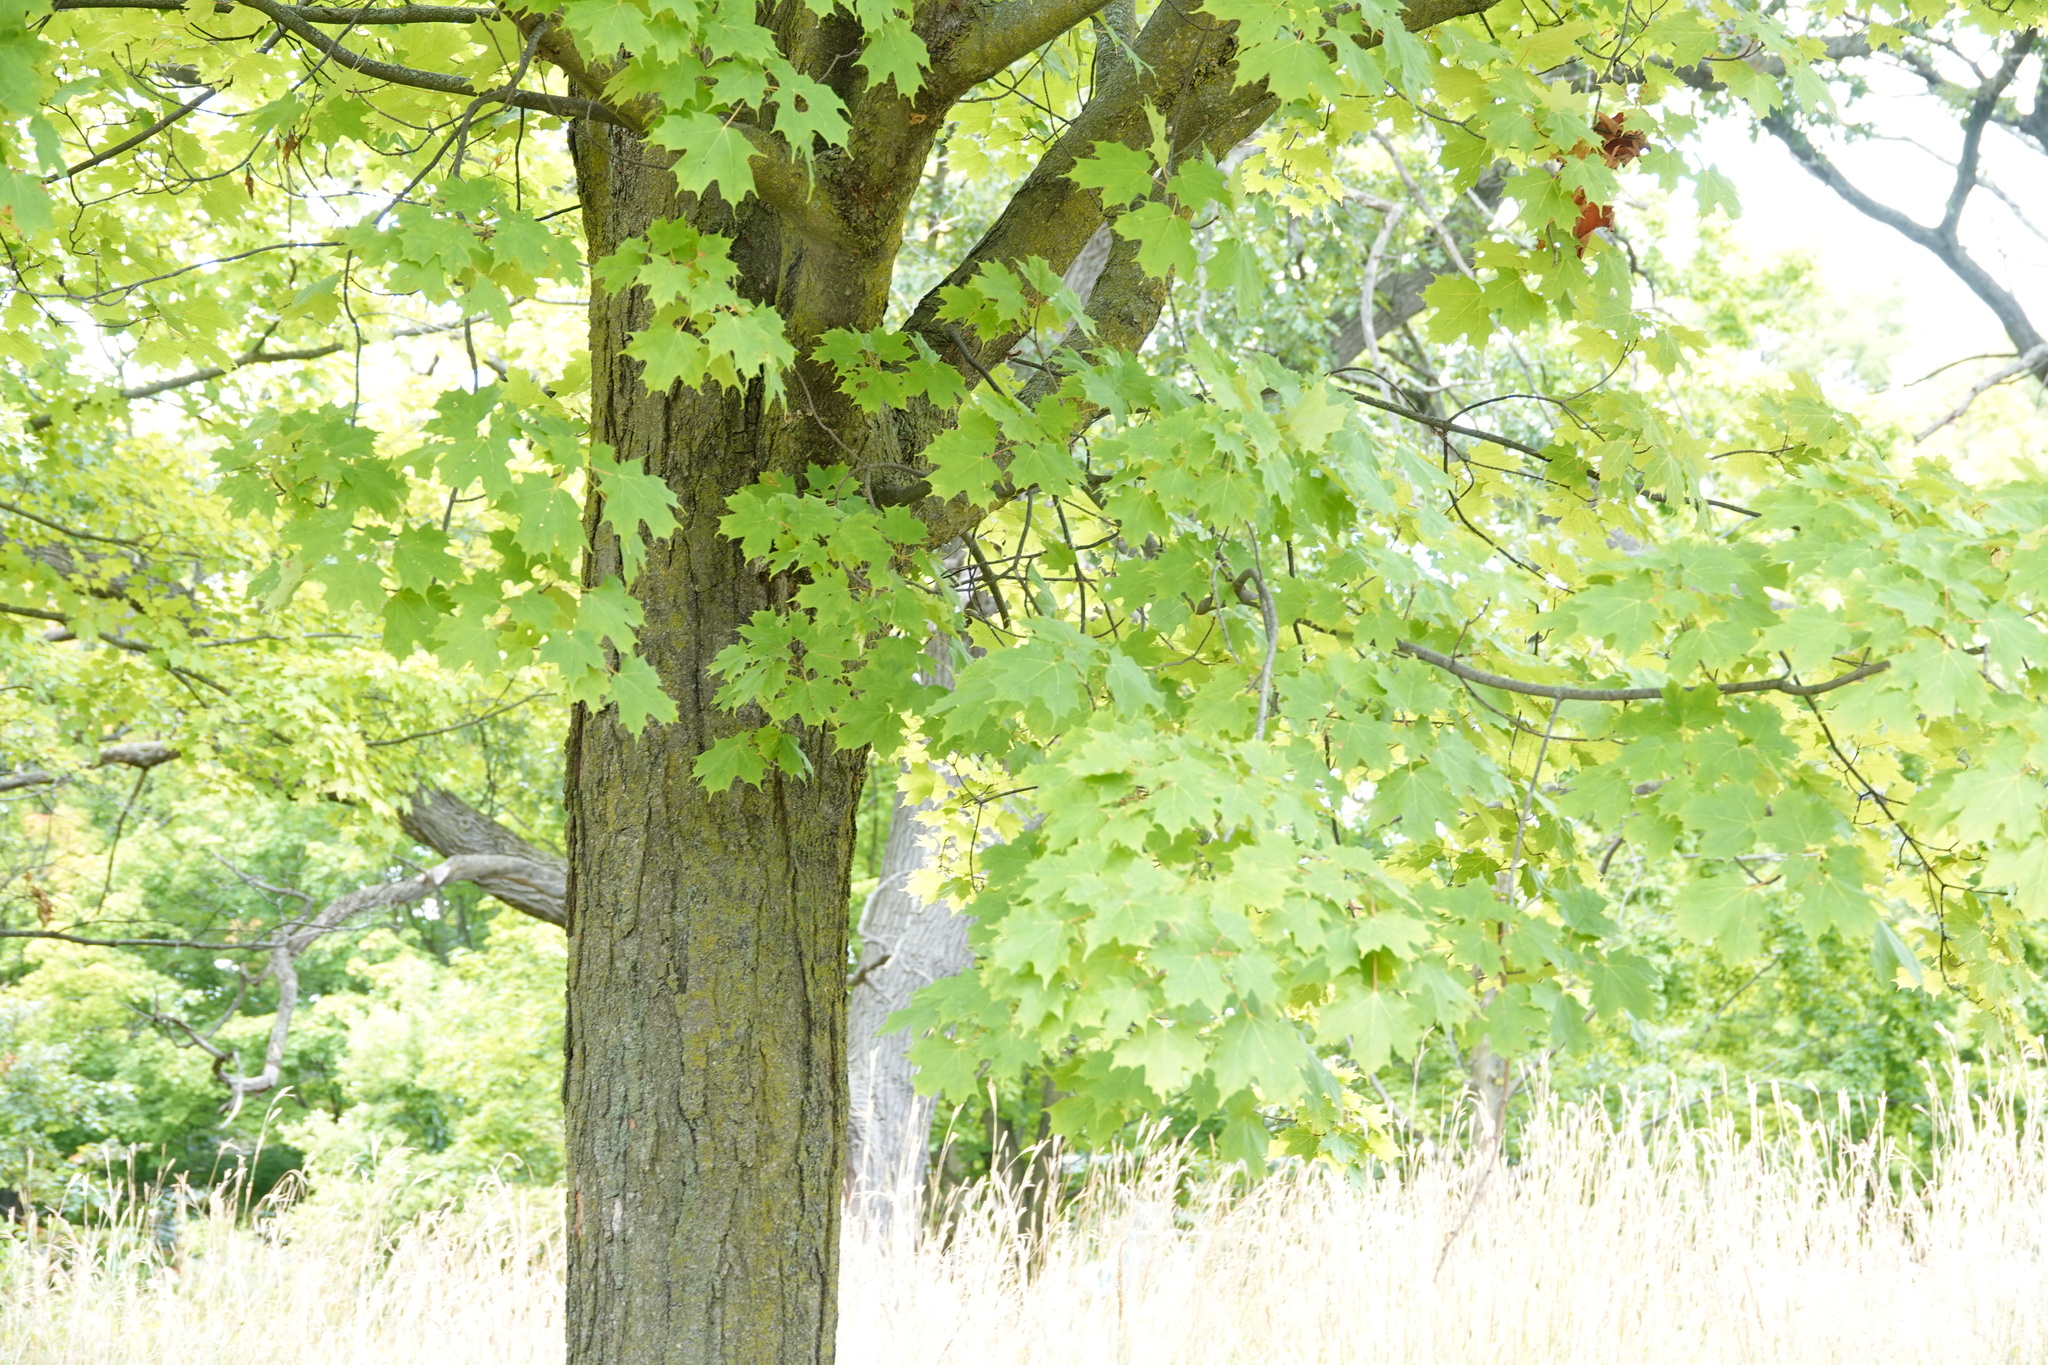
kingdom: Plantae
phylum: Tracheophyta
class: Magnoliopsida
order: Sapindales
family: Sapindaceae
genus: Acer
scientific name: Acer saccharum
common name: Sugar maple
